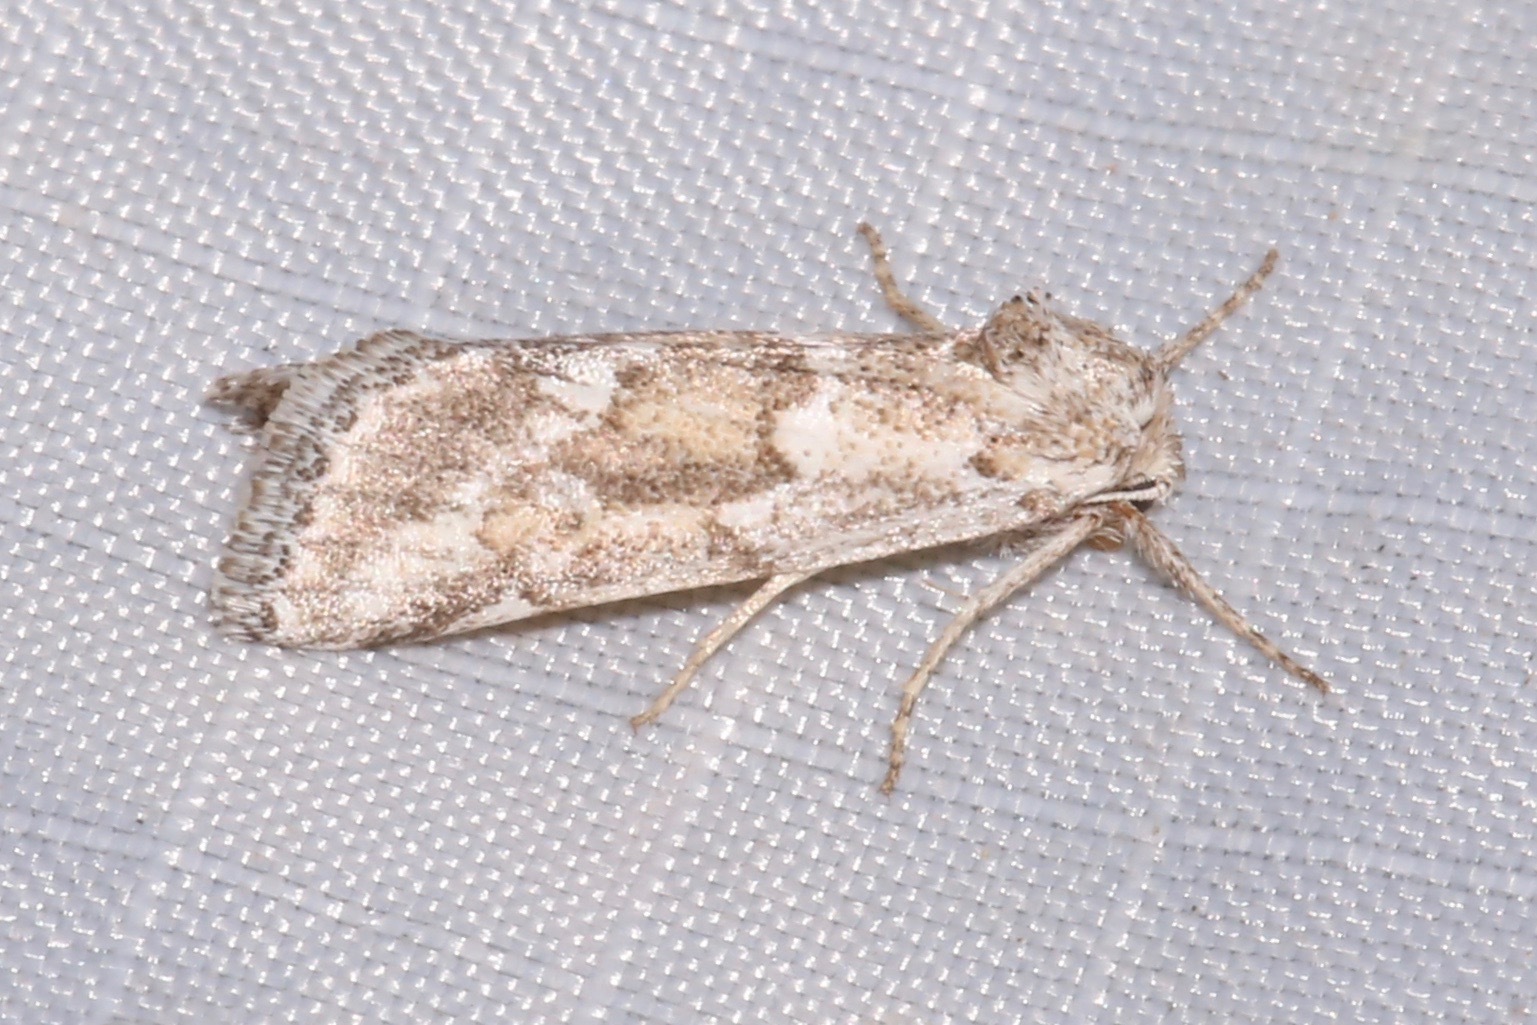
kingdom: Animalia
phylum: Arthropoda
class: Insecta
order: Lepidoptera
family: Noctuidae
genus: Acopa
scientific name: Acopa carina
